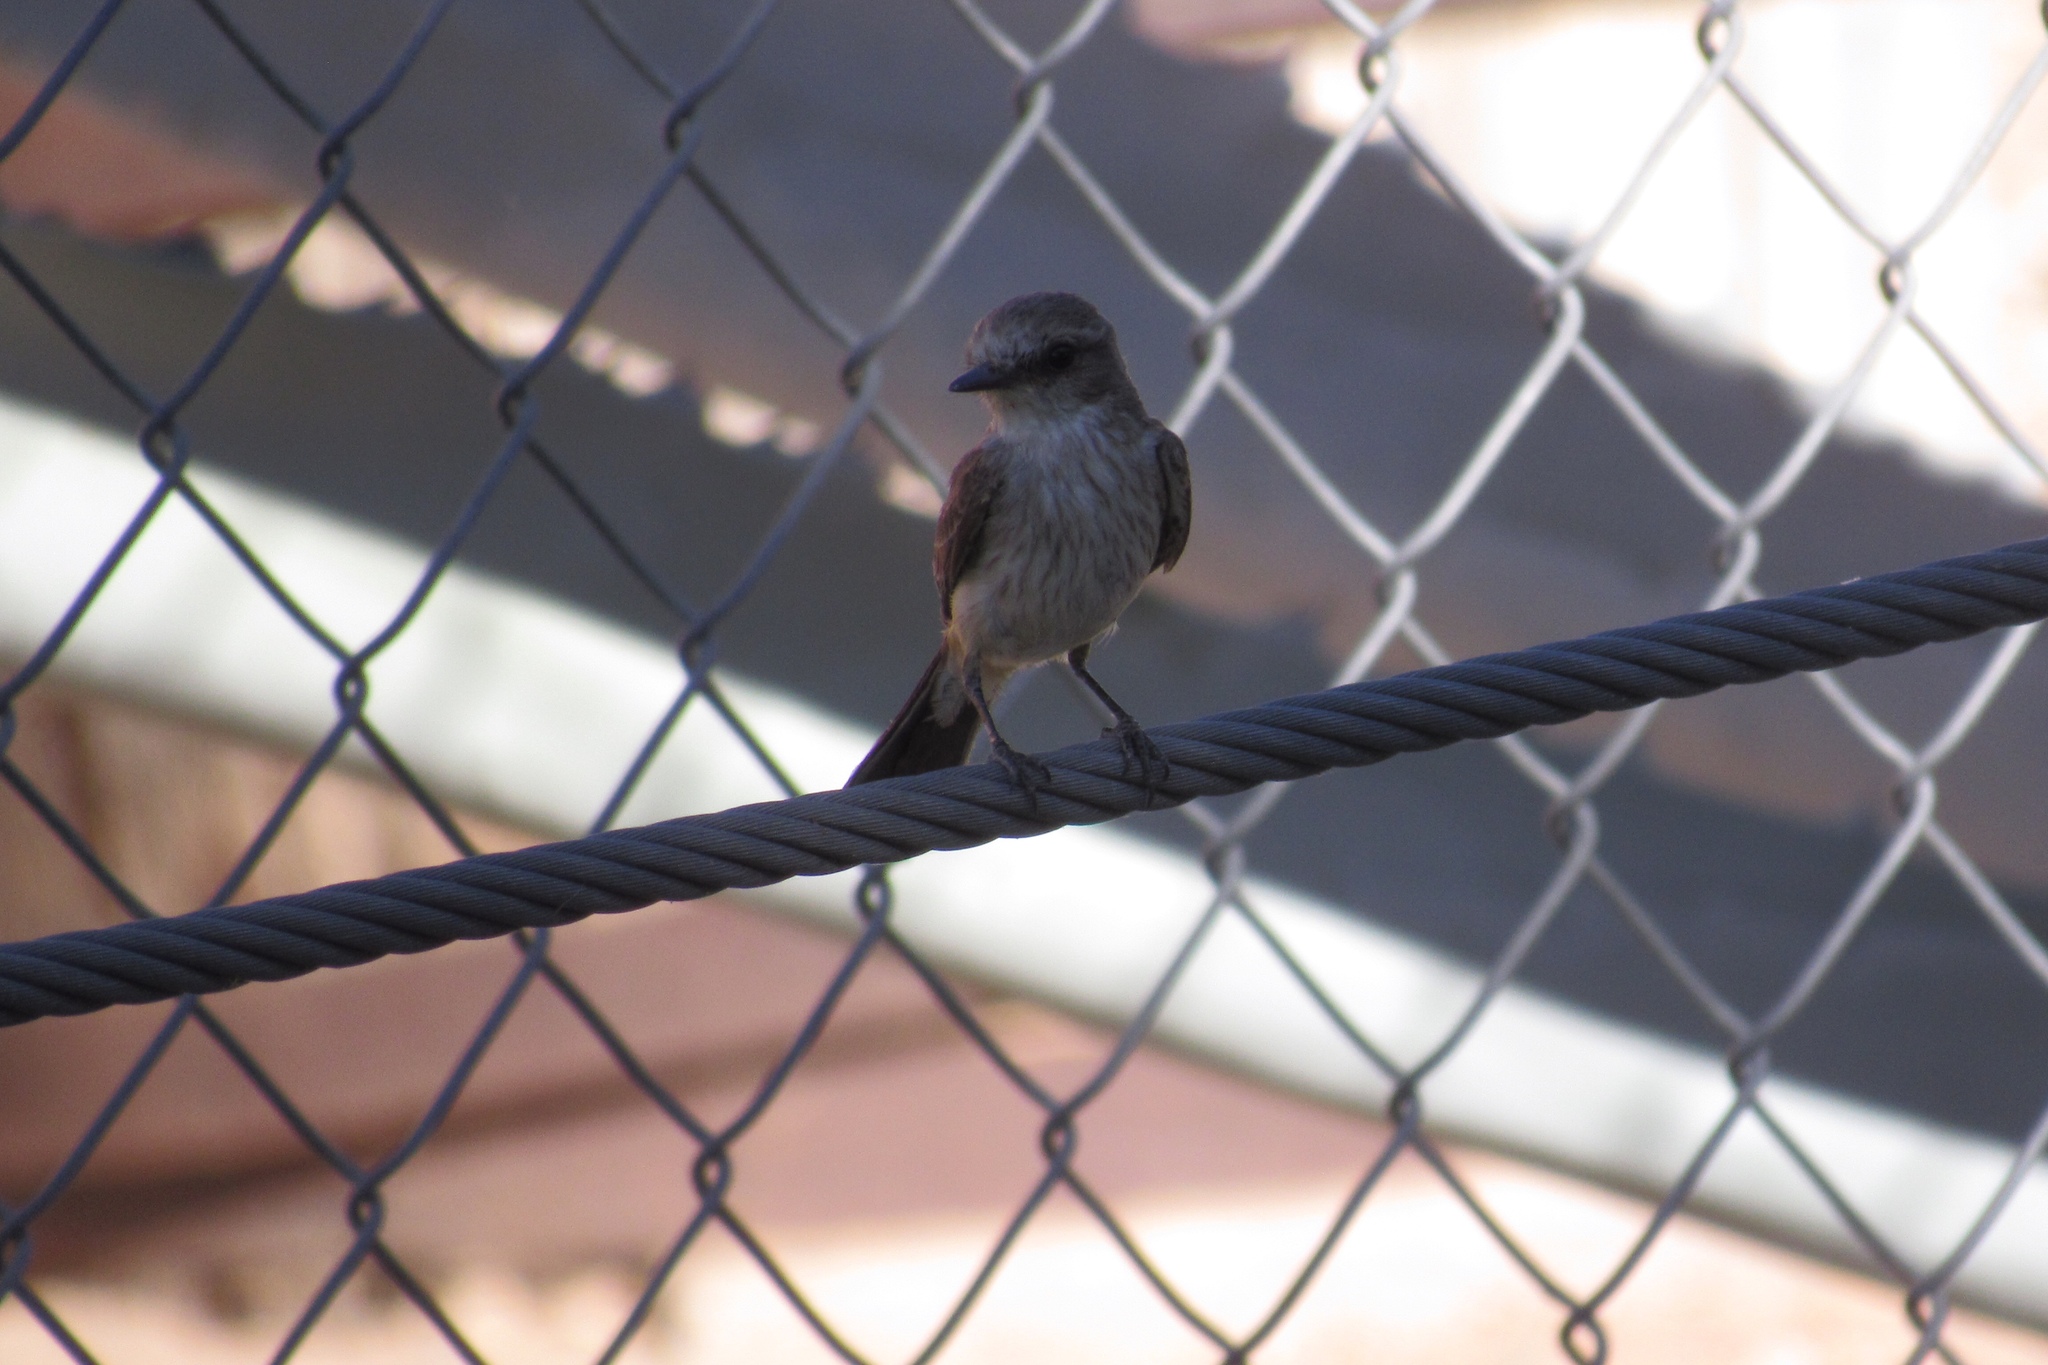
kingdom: Animalia
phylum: Chordata
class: Aves
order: Passeriformes
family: Tyrannidae
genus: Pyrocephalus
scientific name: Pyrocephalus rubinus
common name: Vermilion flycatcher
